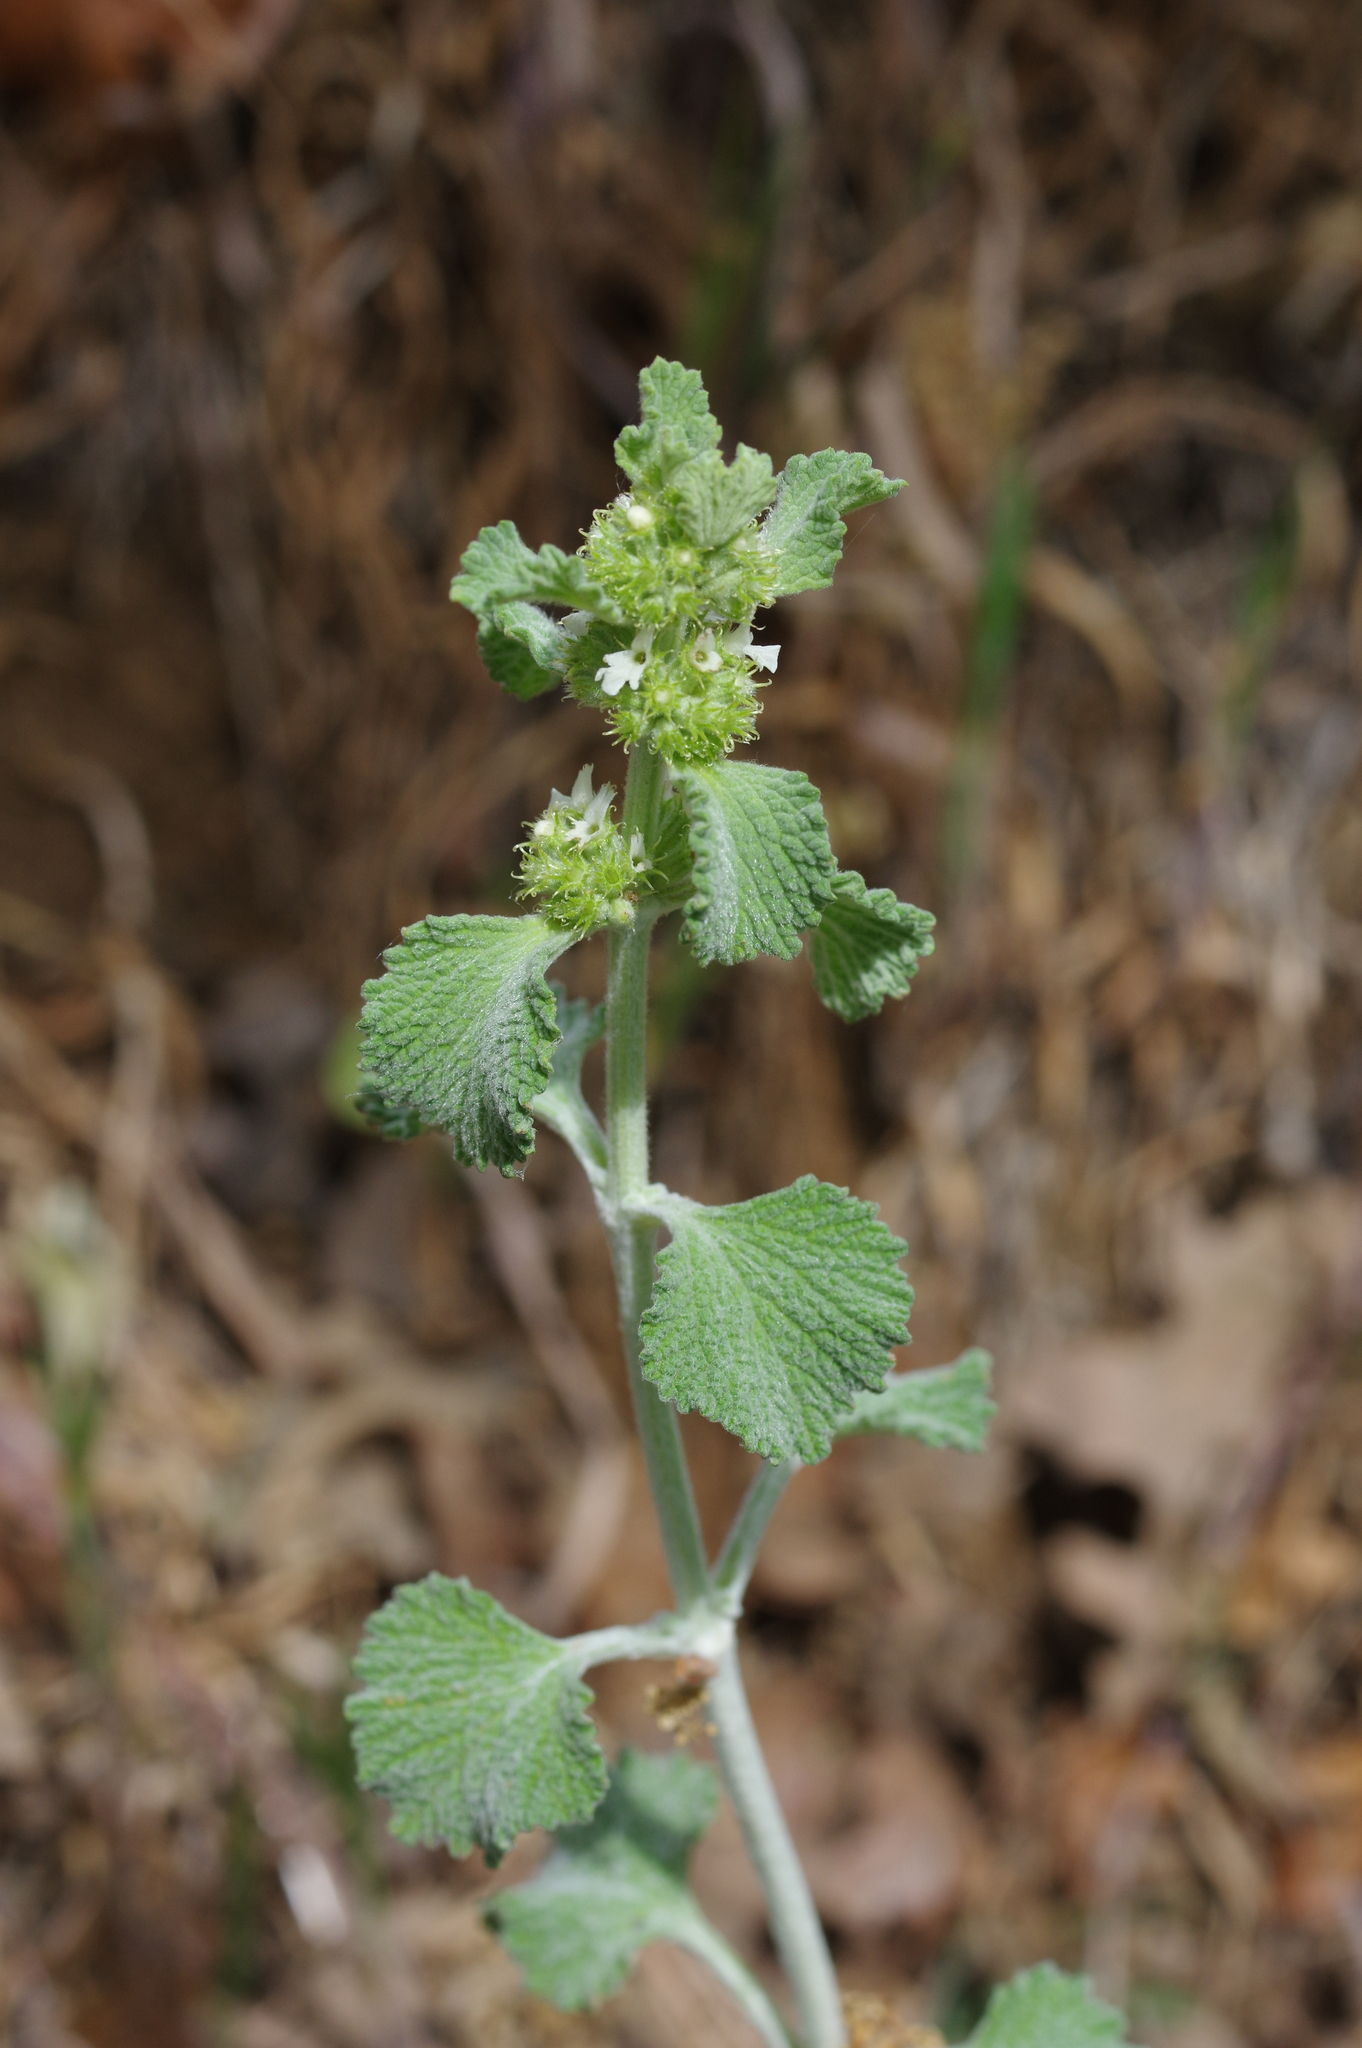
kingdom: Plantae
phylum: Tracheophyta
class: Magnoliopsida
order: Lamiales
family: Lamiaceae
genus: Marrubium
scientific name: Marrubium vulgare
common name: Horehound
